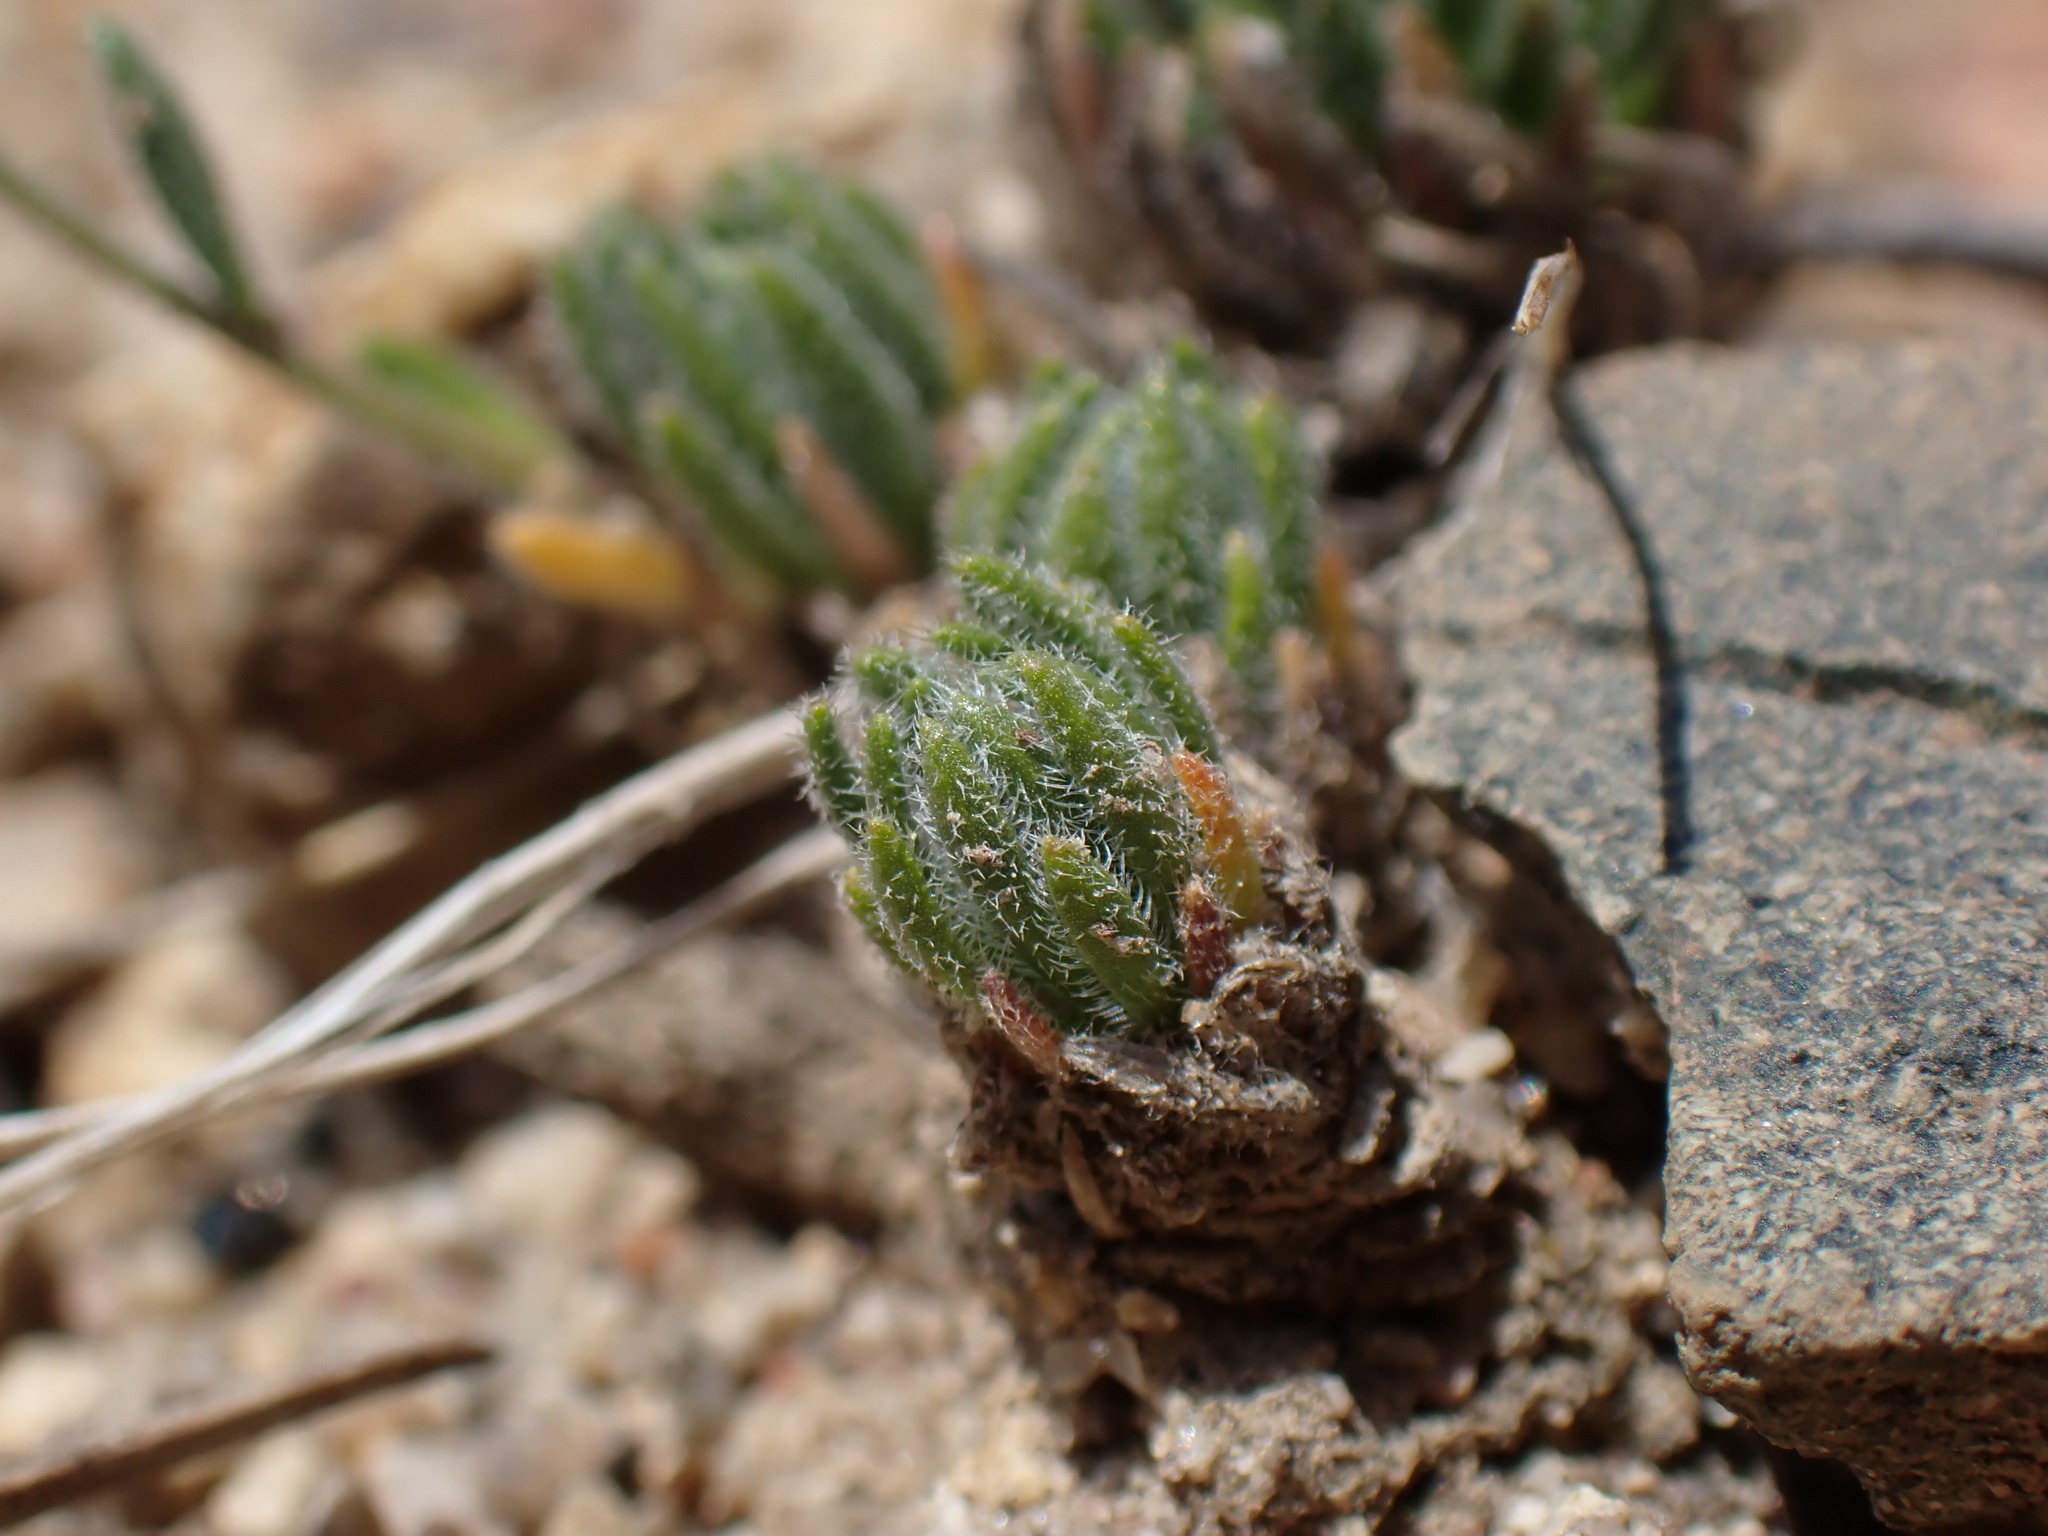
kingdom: Plantae
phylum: Tracheophyta
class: Magnoliopsida
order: Brassicales
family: Brassicaceae
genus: Boechera
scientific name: Boechera pygmaea
